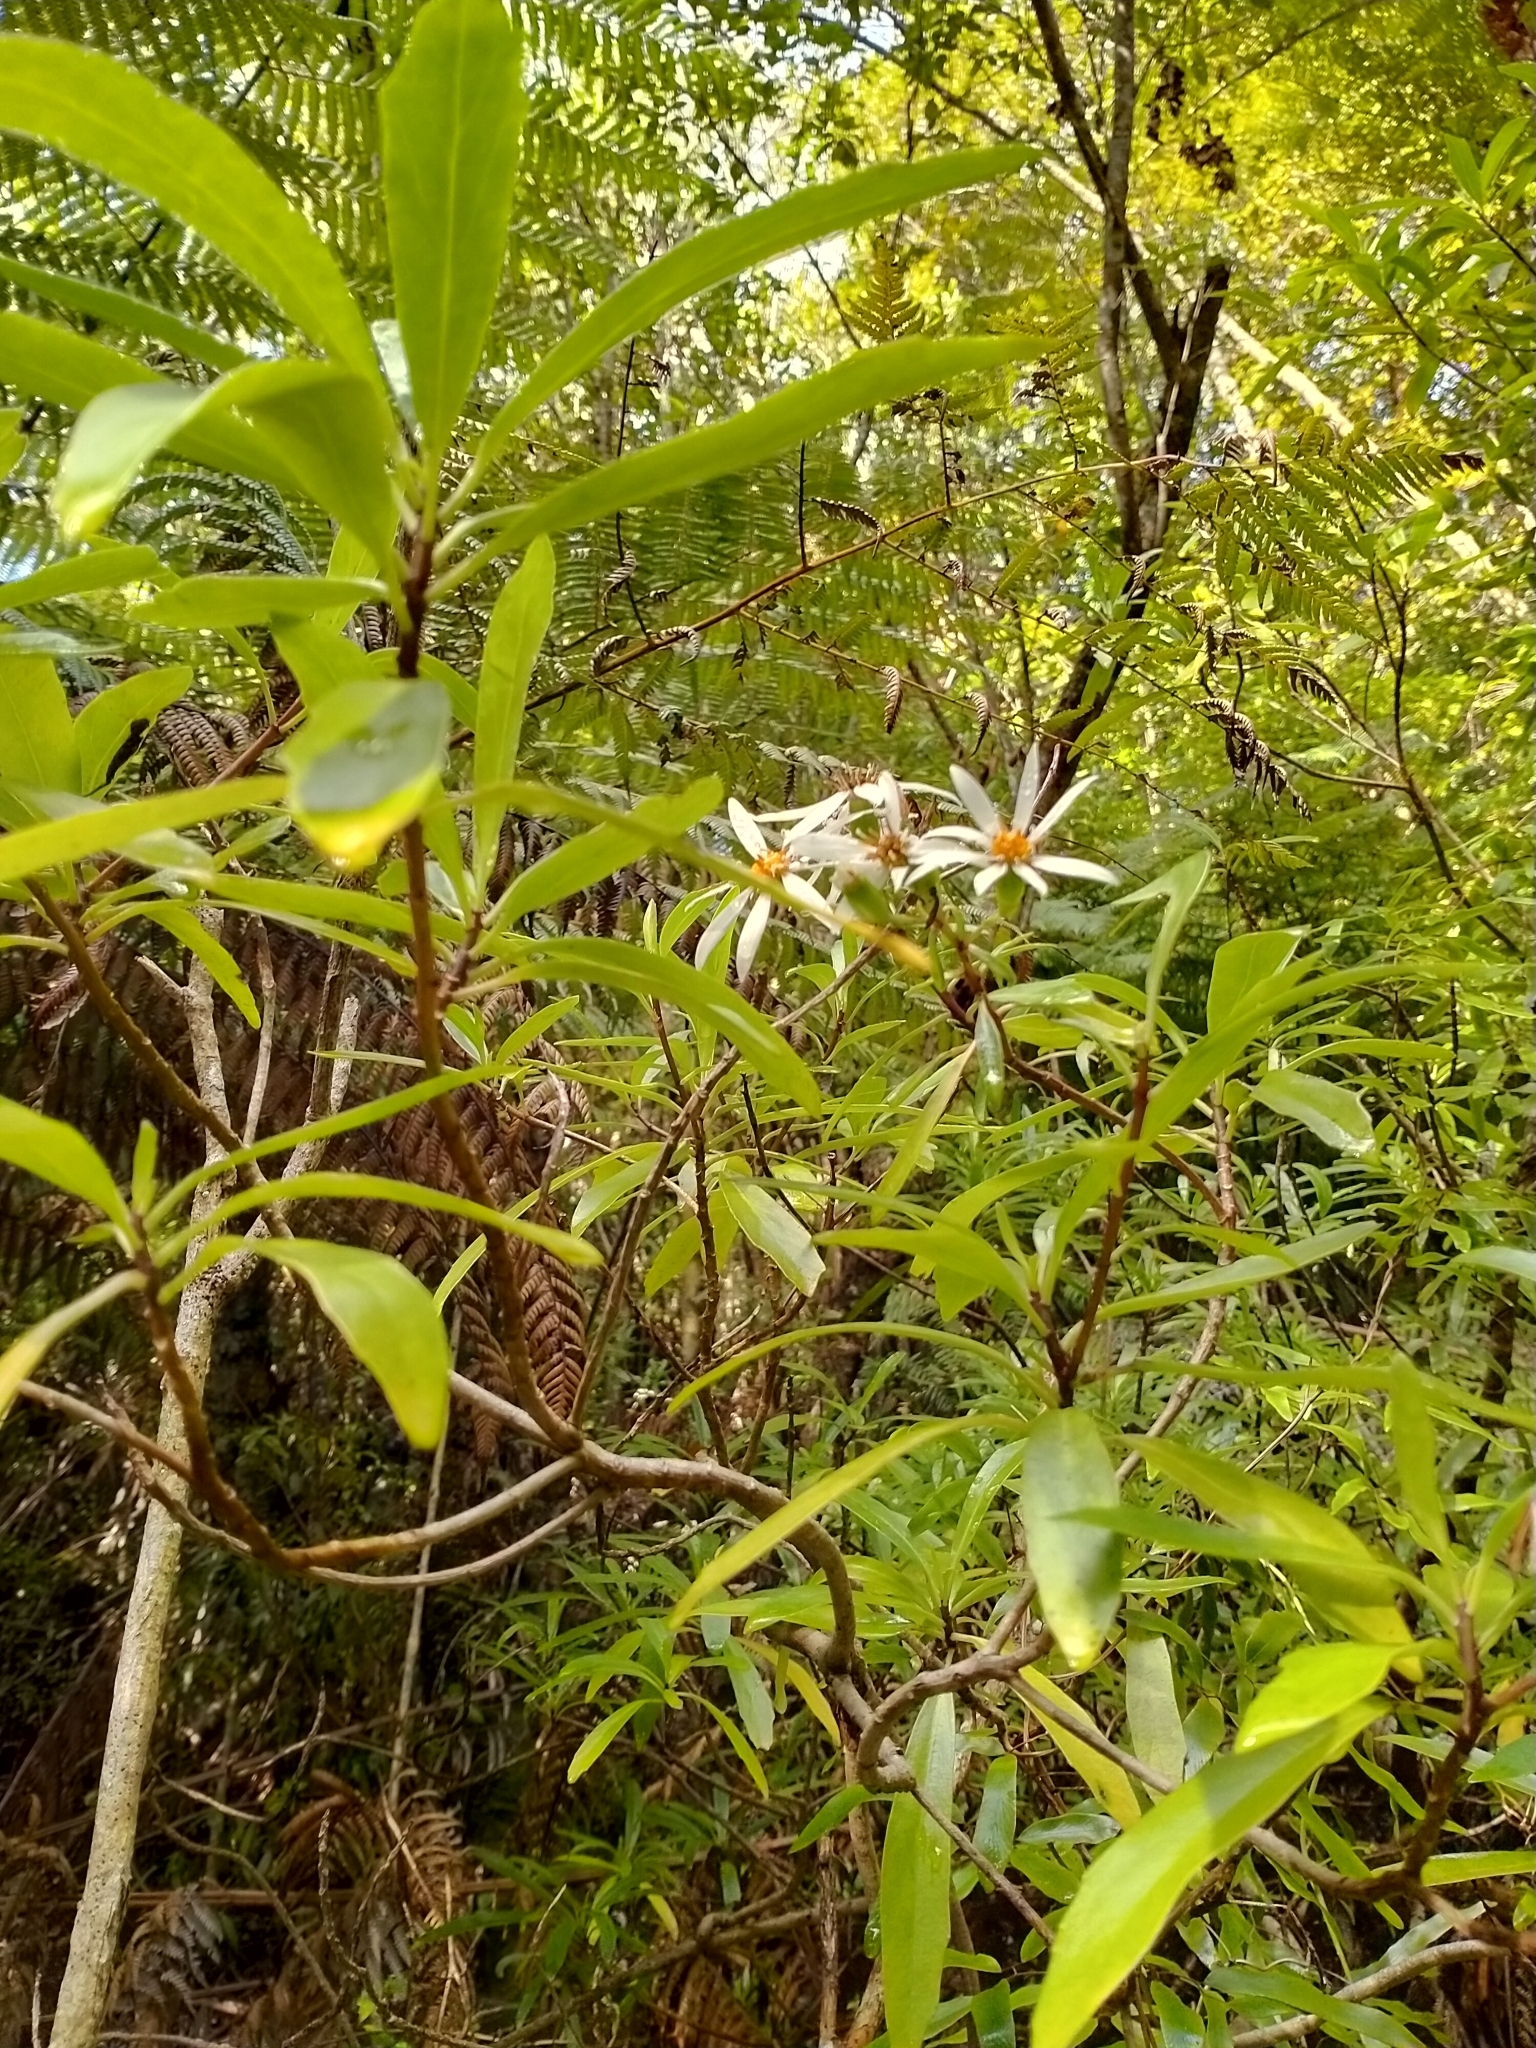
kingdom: Plantae
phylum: Tracheophyta
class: Magnoliopsida
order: Asterales
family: Asteraceae
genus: Brachyglottis
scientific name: Brachyglottis kirkii
